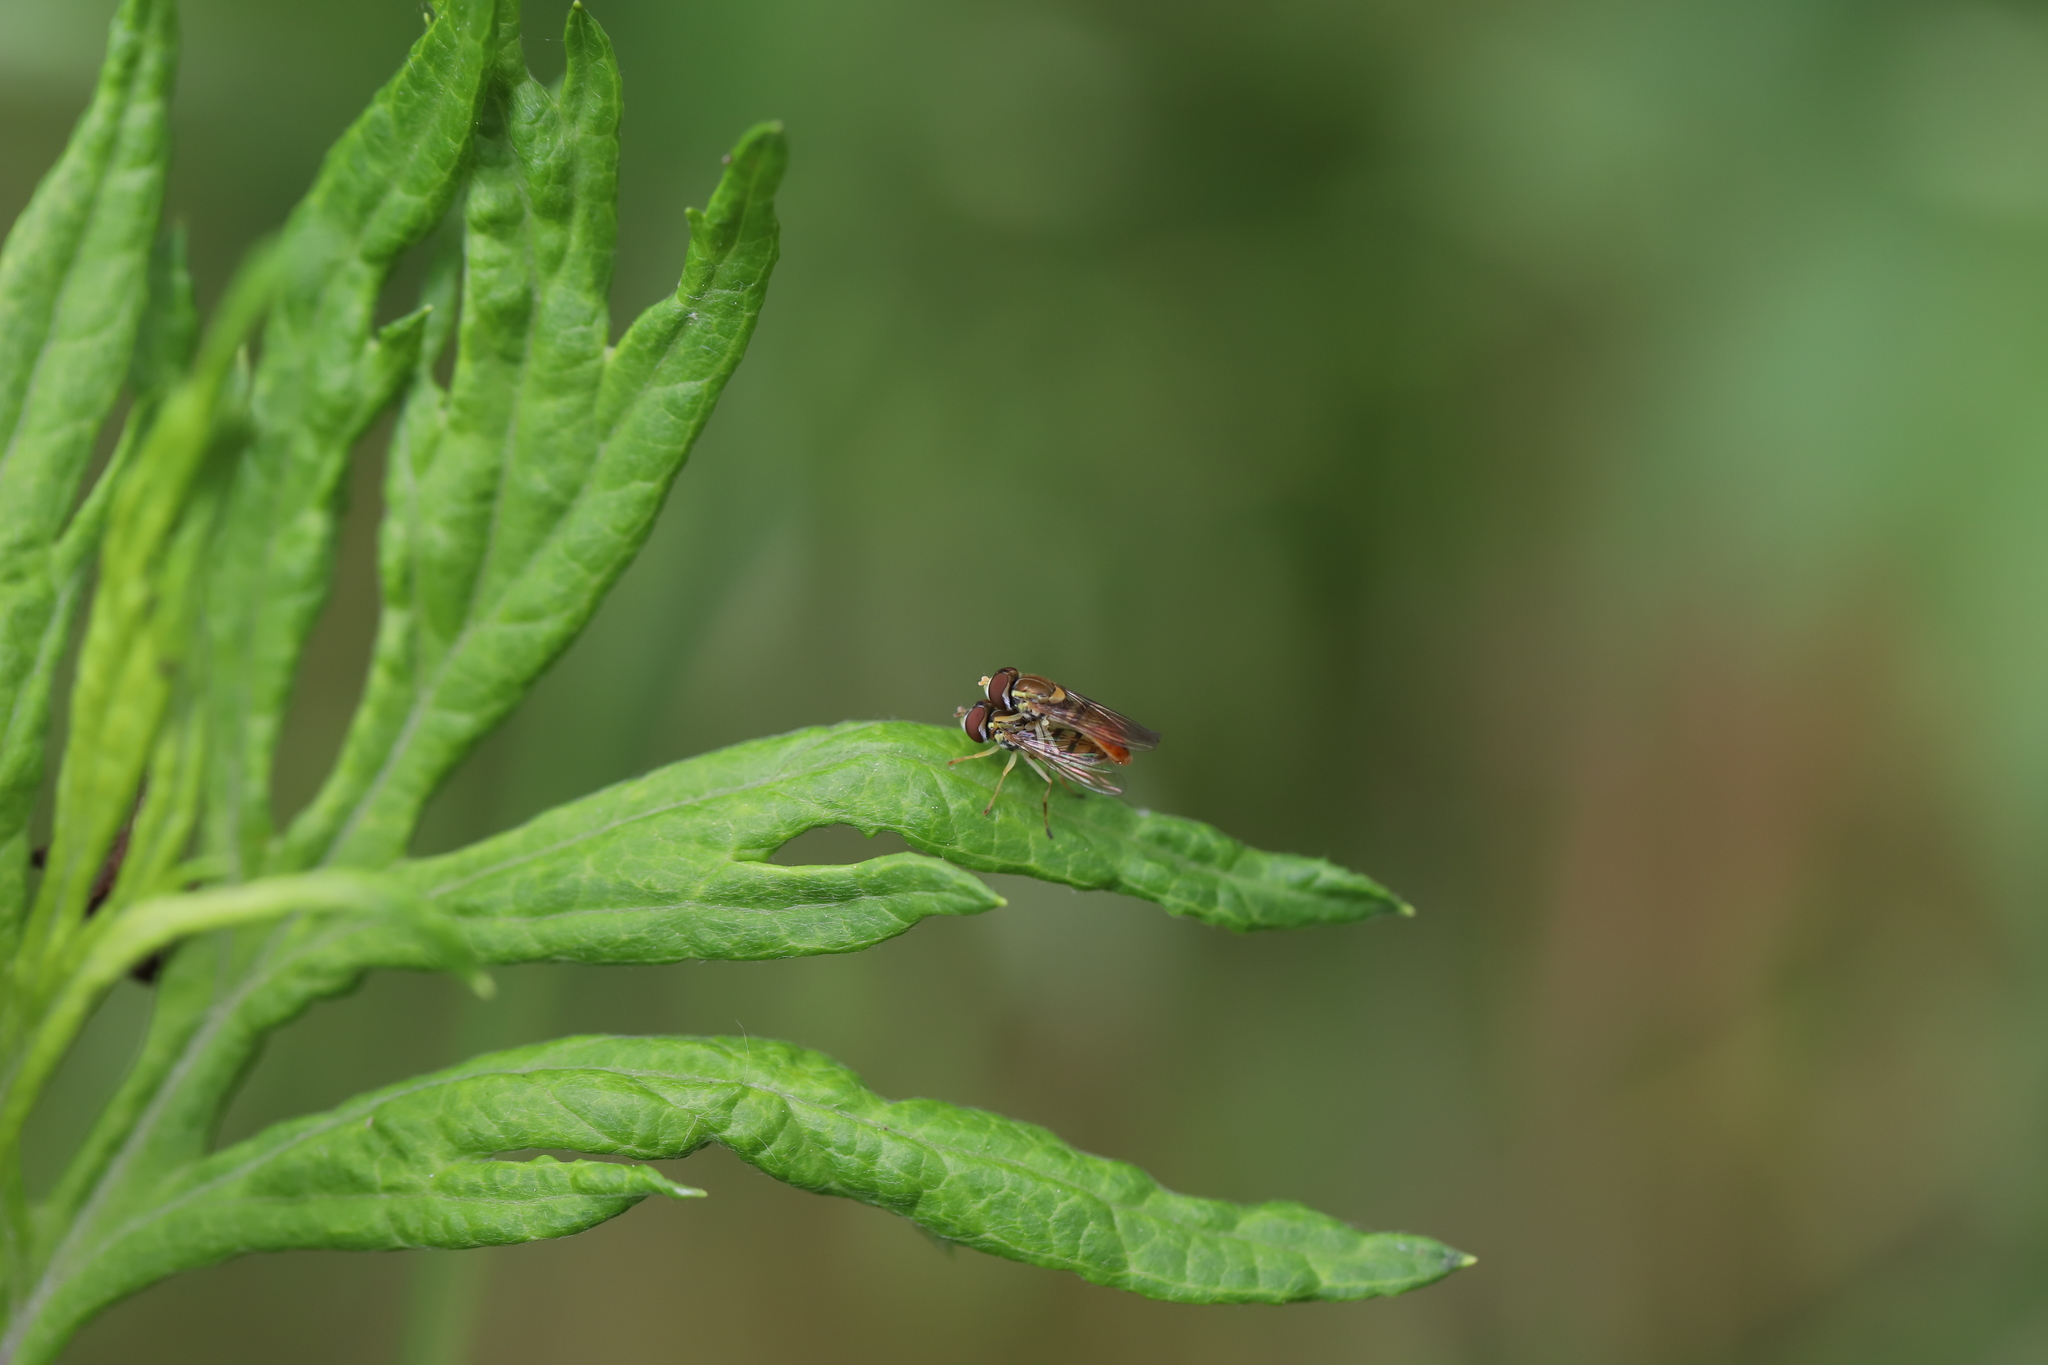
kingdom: Animalia
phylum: Arthropoda
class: Insecta
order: Diptera
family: Syrphidae
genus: Toxomerus
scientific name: Toxomerus marginatus
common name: Syrphid fly
